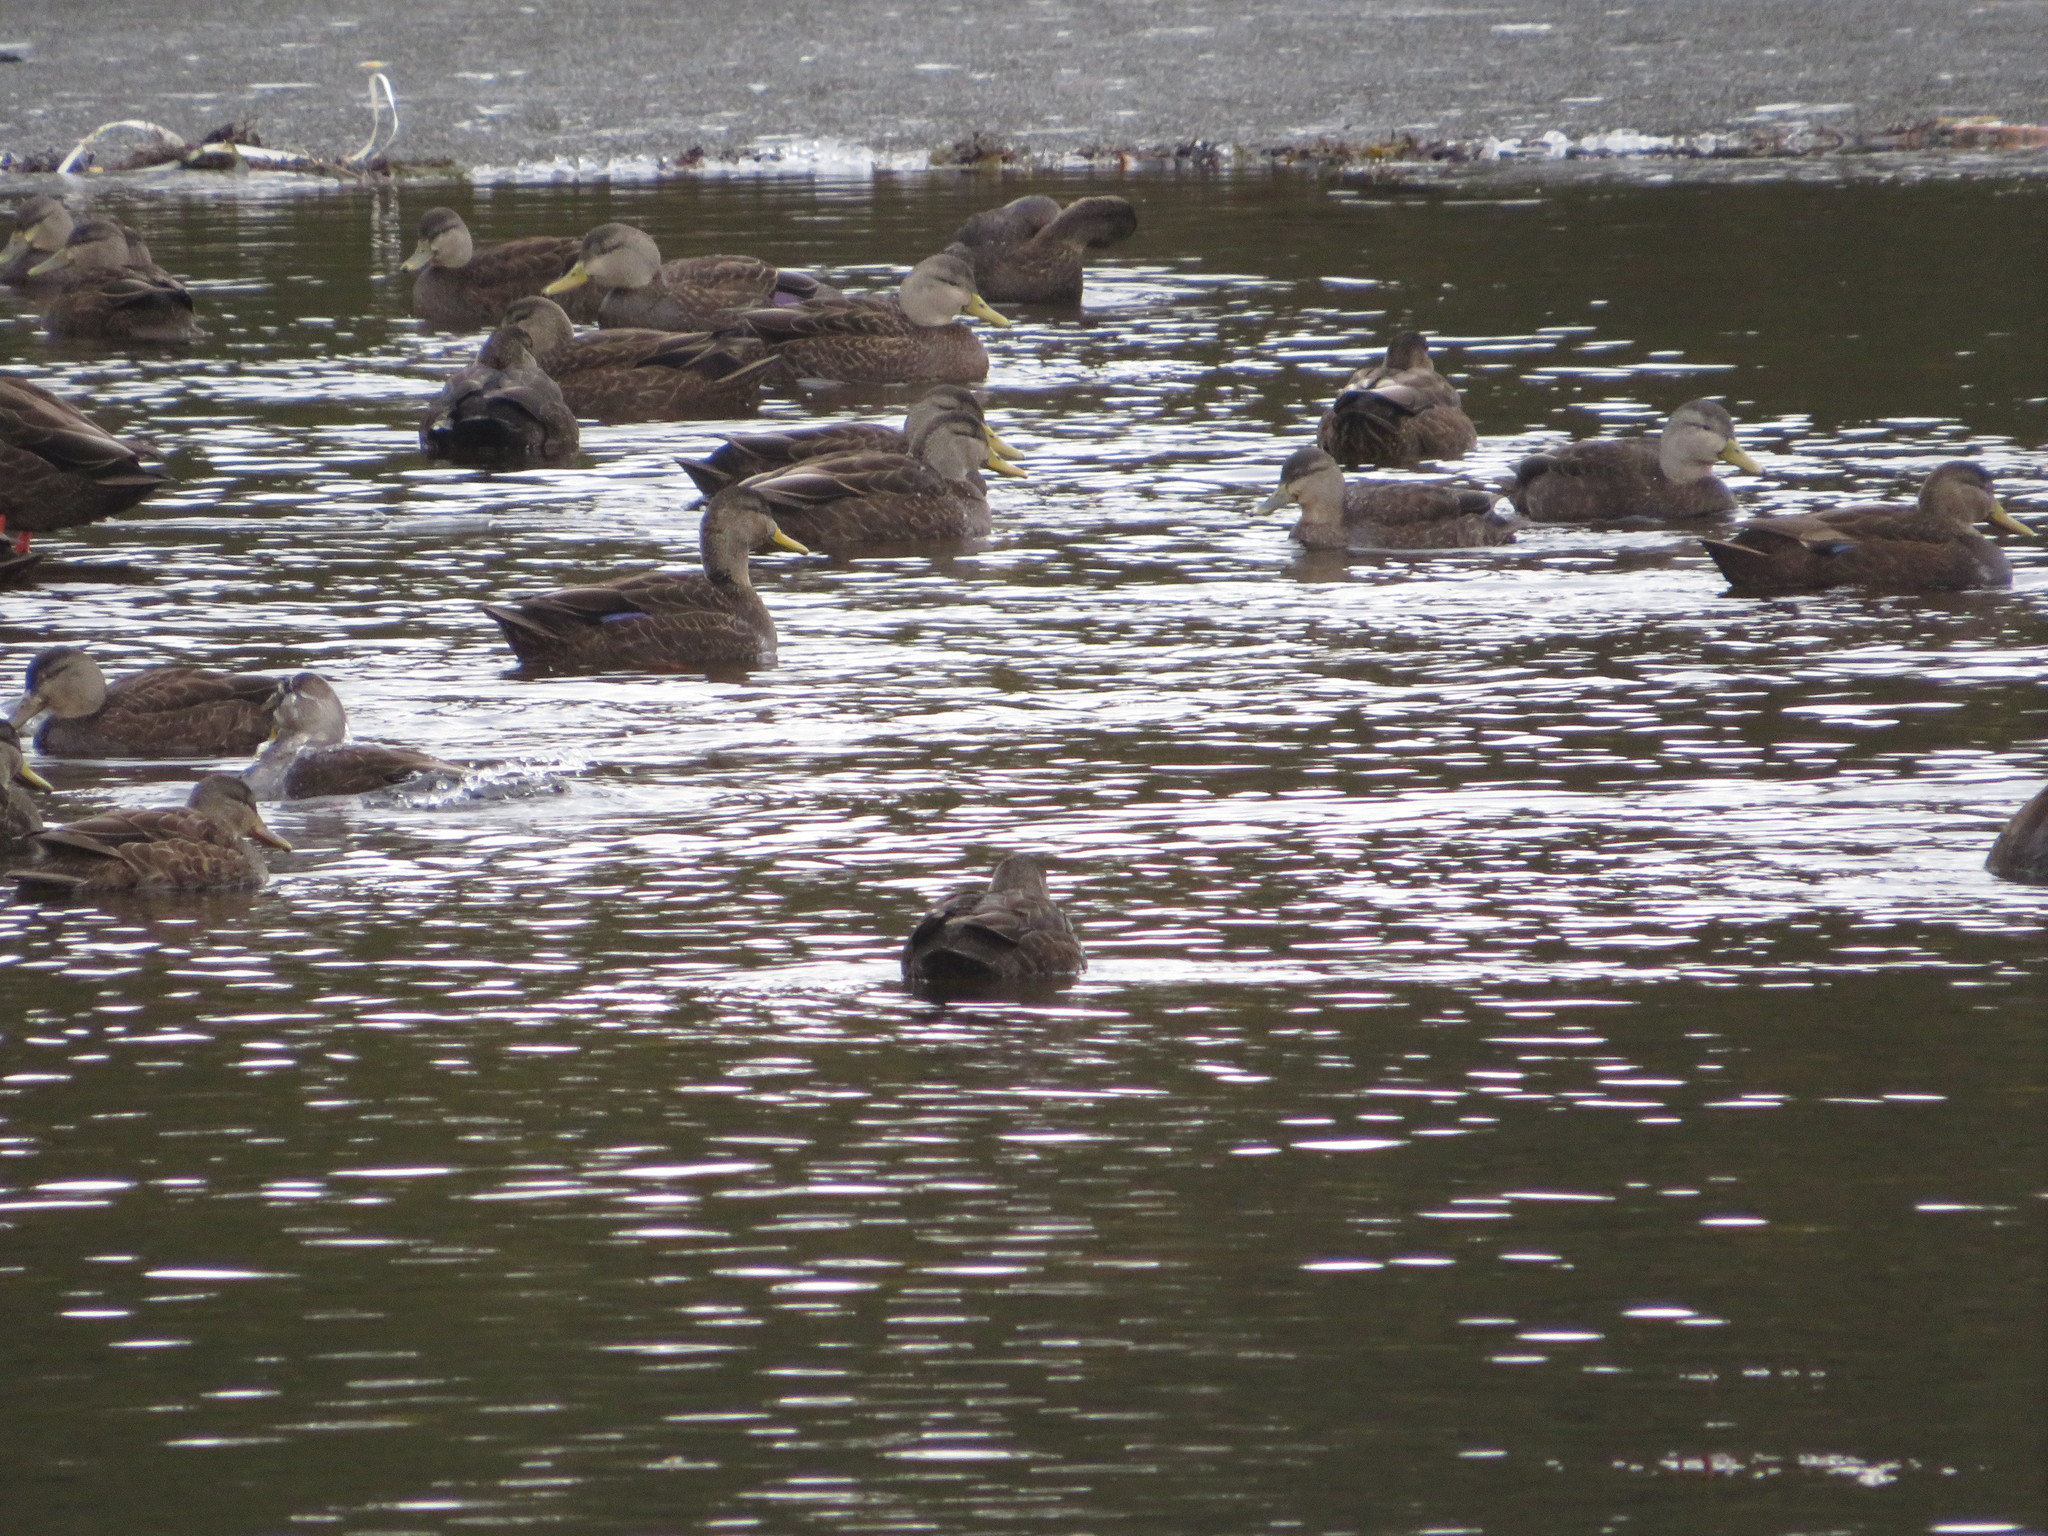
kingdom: Animalia
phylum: Chordata
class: Aves
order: Anseriformes
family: Anatidae
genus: Anas
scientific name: Anas rubripes
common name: American black duck
